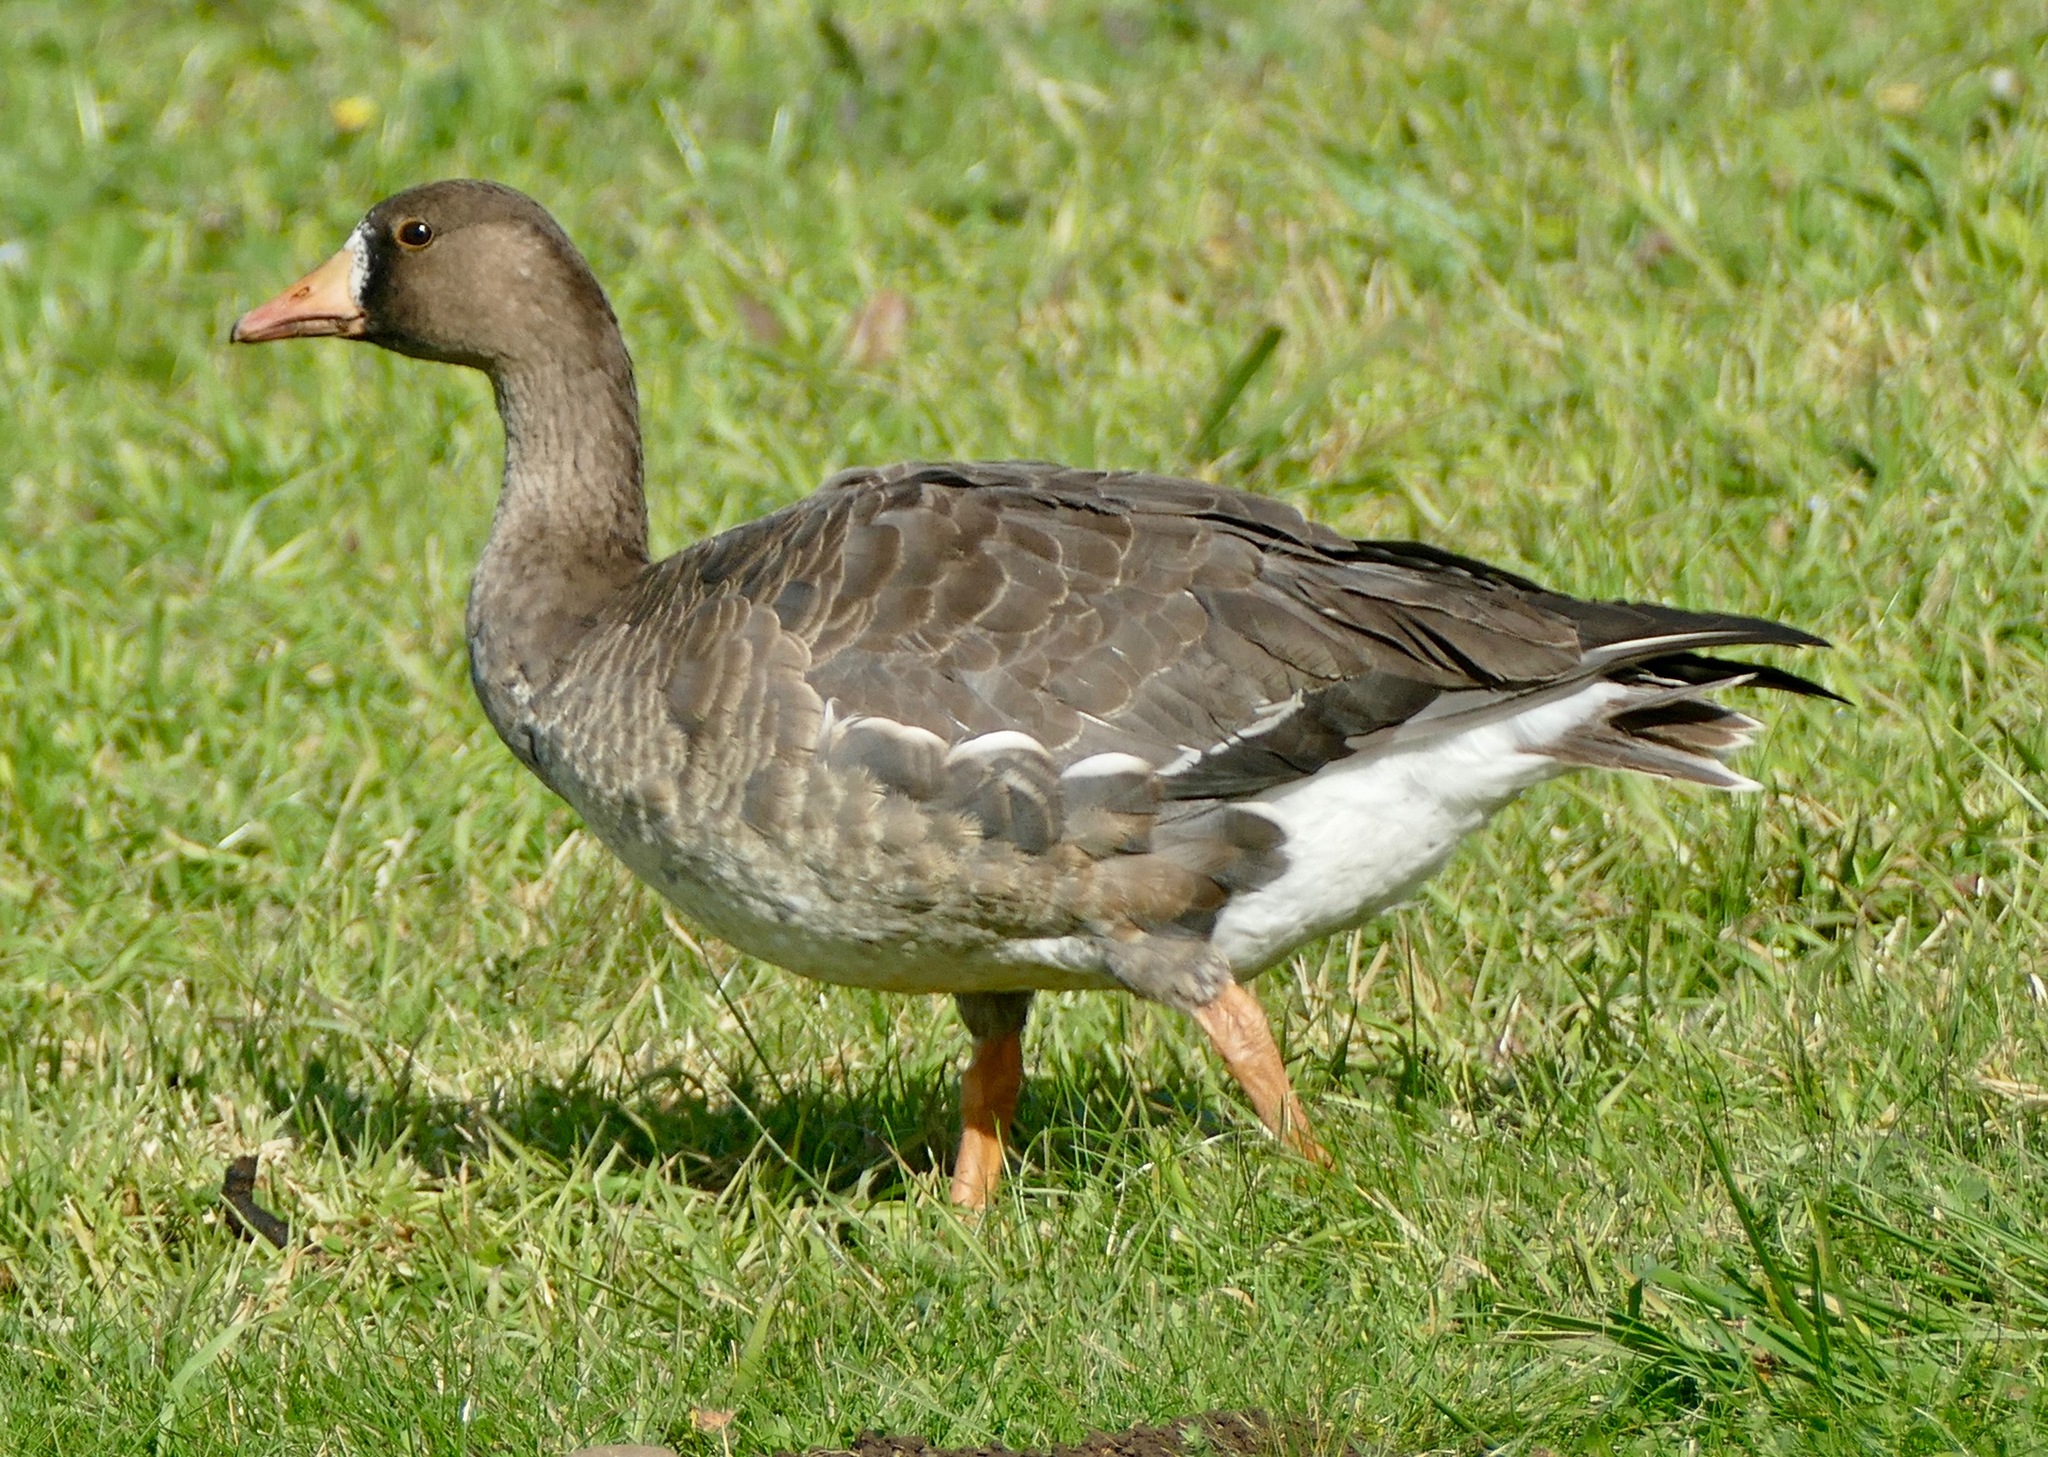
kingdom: Animalia
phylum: Chordata
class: Aves
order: Anseriformes
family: Anatidae
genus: Anser
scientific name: Anser albifrons
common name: Greater white-fronted goose
